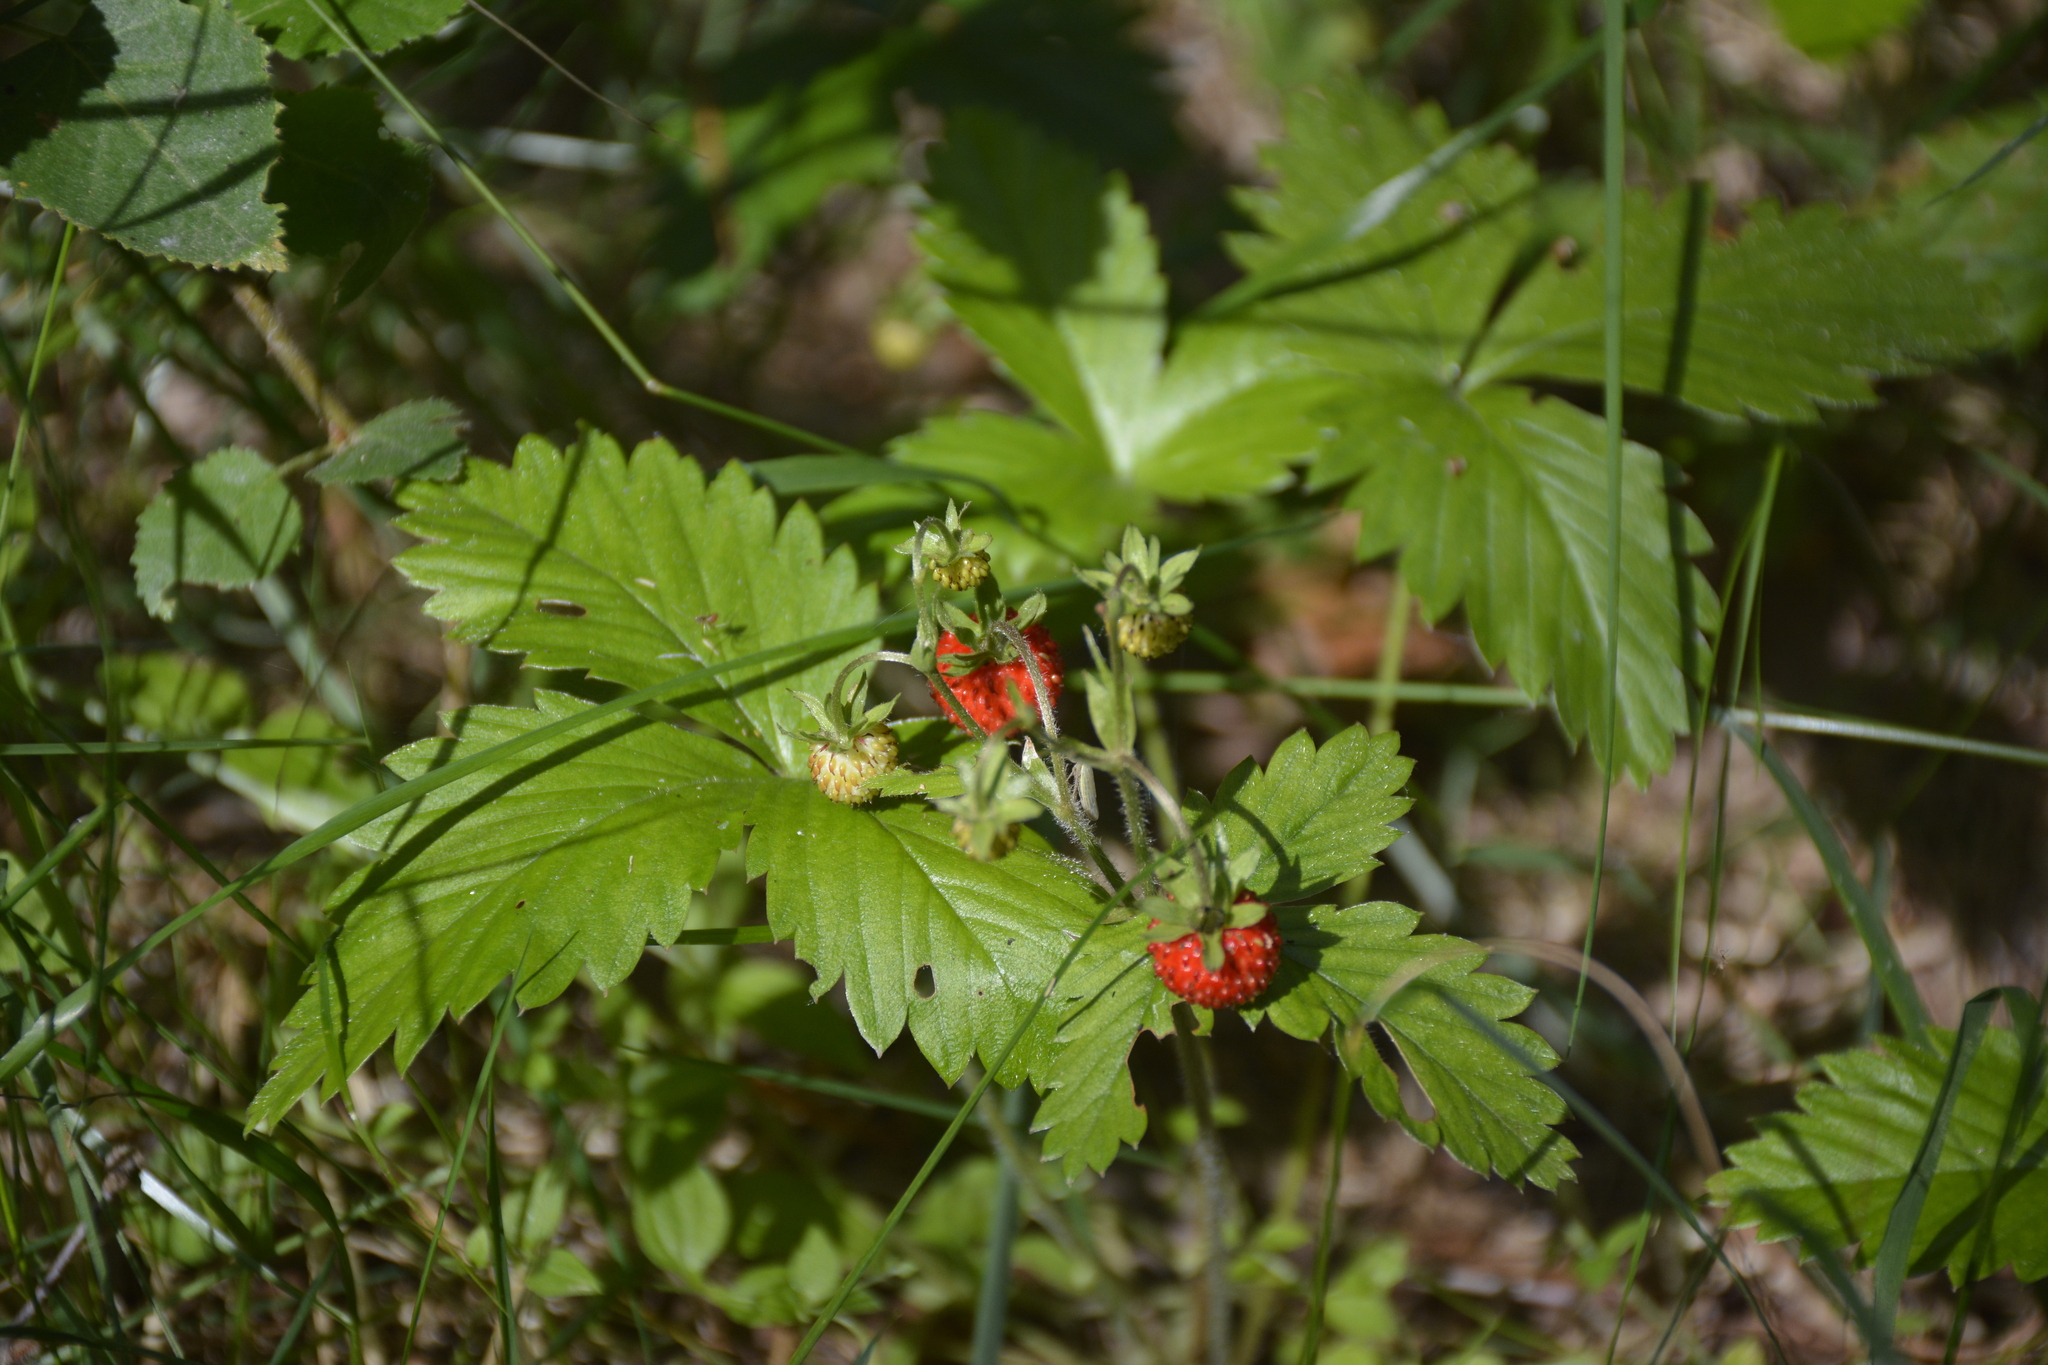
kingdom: Plantae
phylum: Tracheophyta
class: Magnoliopsida
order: Rosales
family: Rosaceae
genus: Fragaria
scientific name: Fragaria vesca
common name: Wild strawberry
